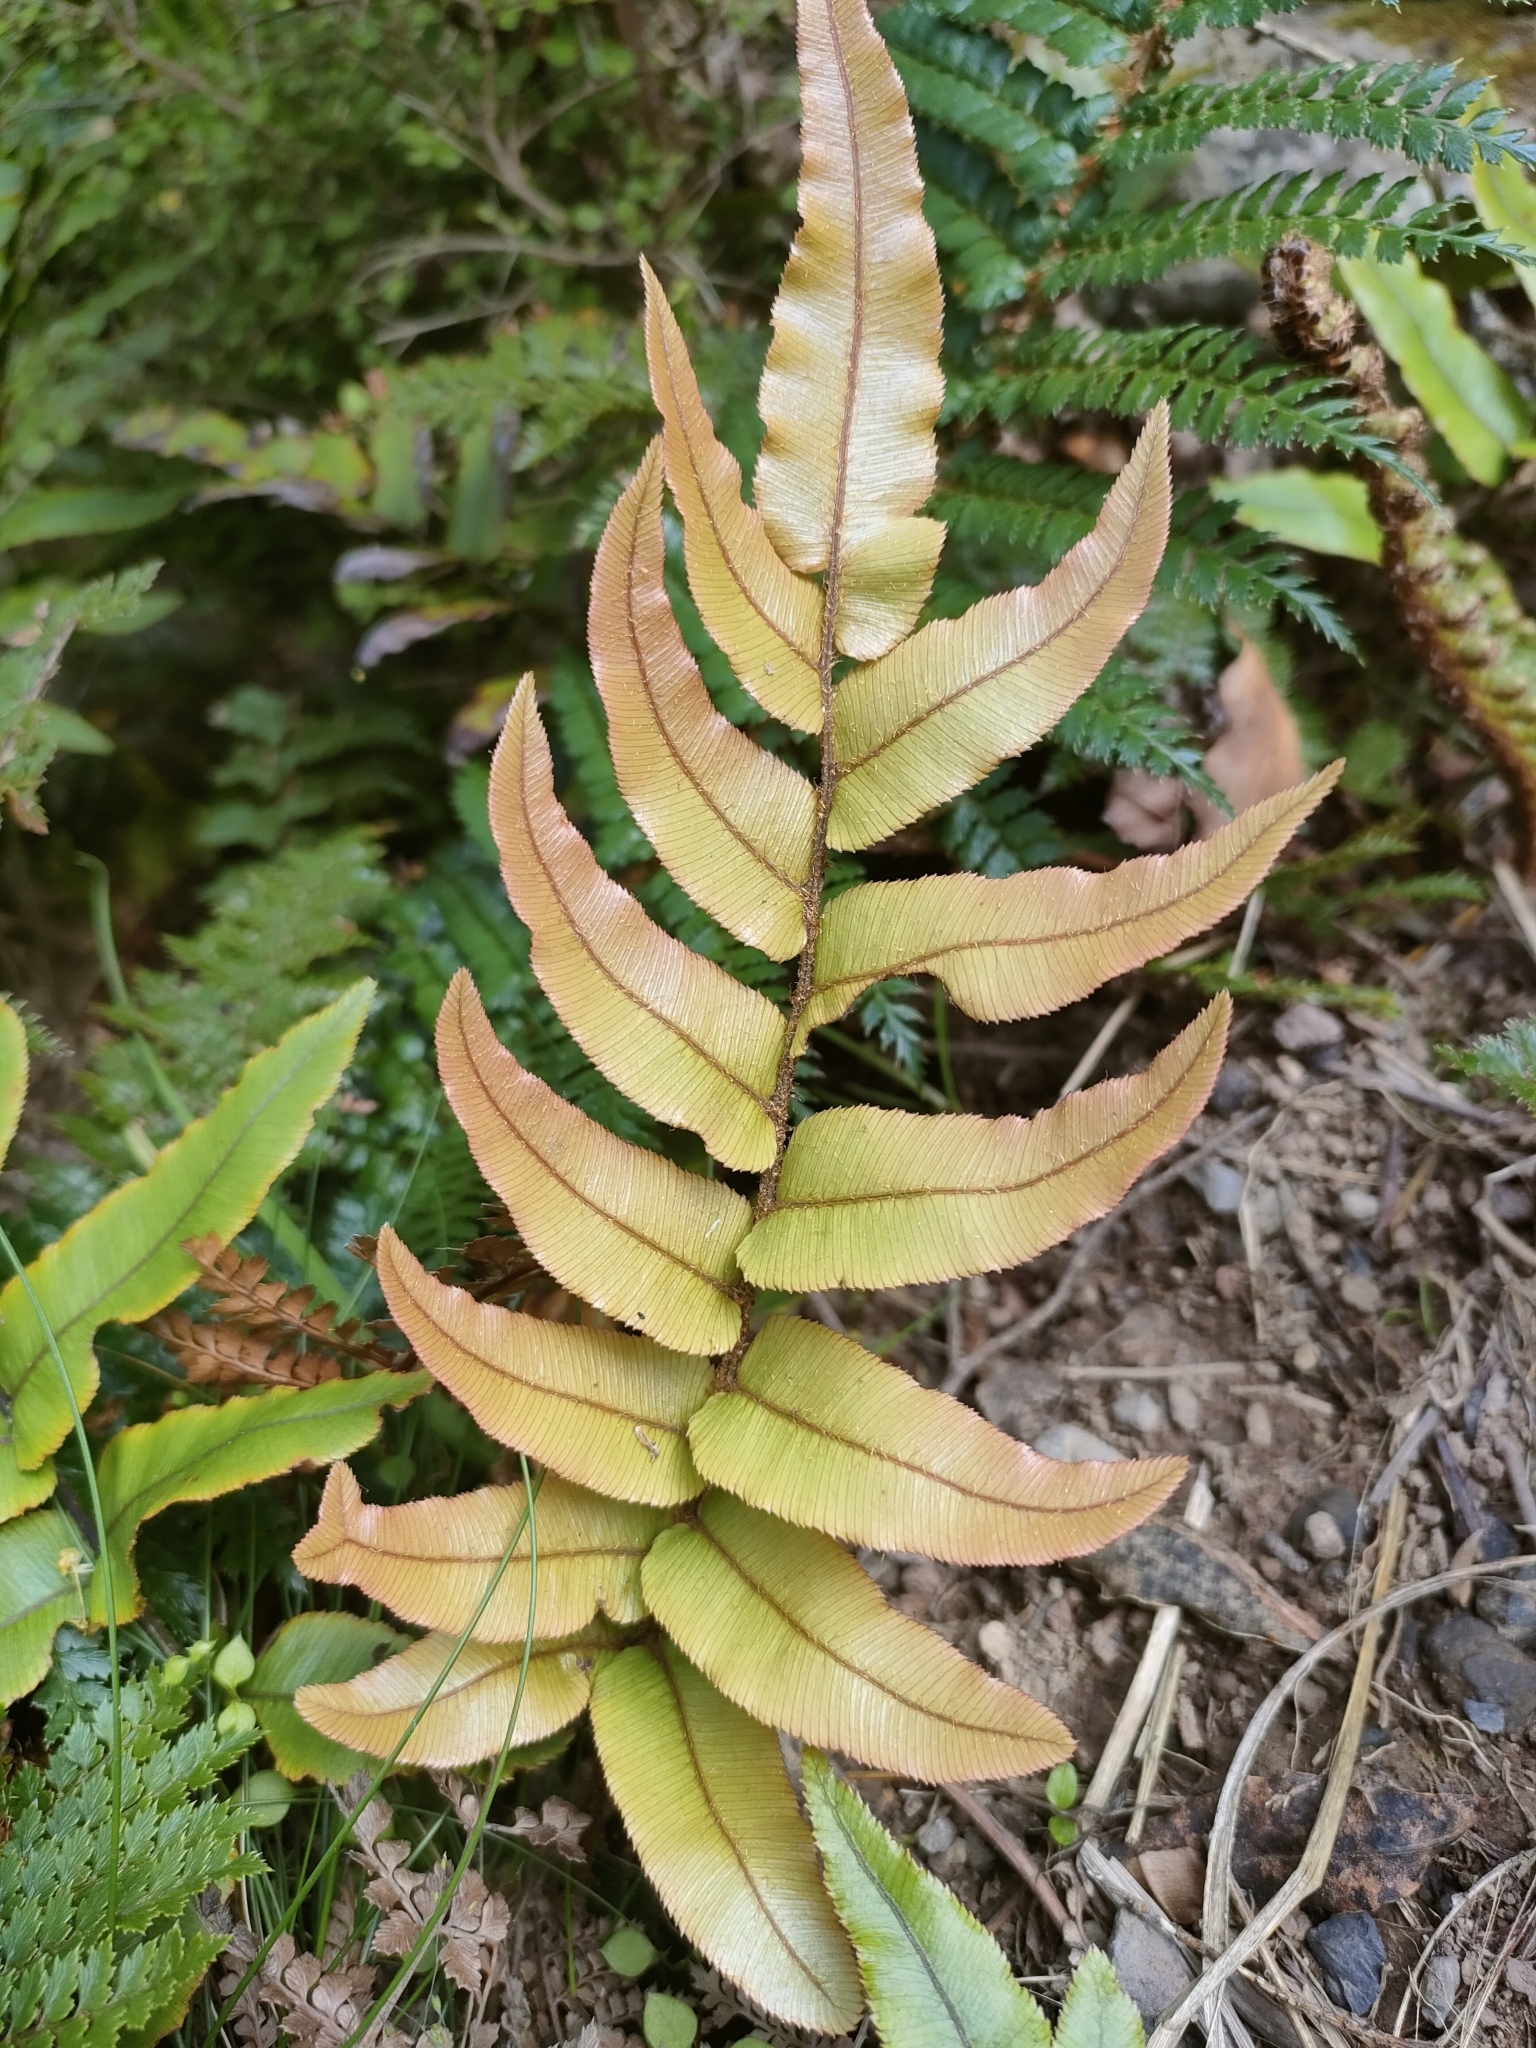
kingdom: Plantae
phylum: Tracheophyta
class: Polypodiopsida
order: Polypodiales
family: Blechnaceae
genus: Parablechnum
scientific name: Parablechnum procerum
